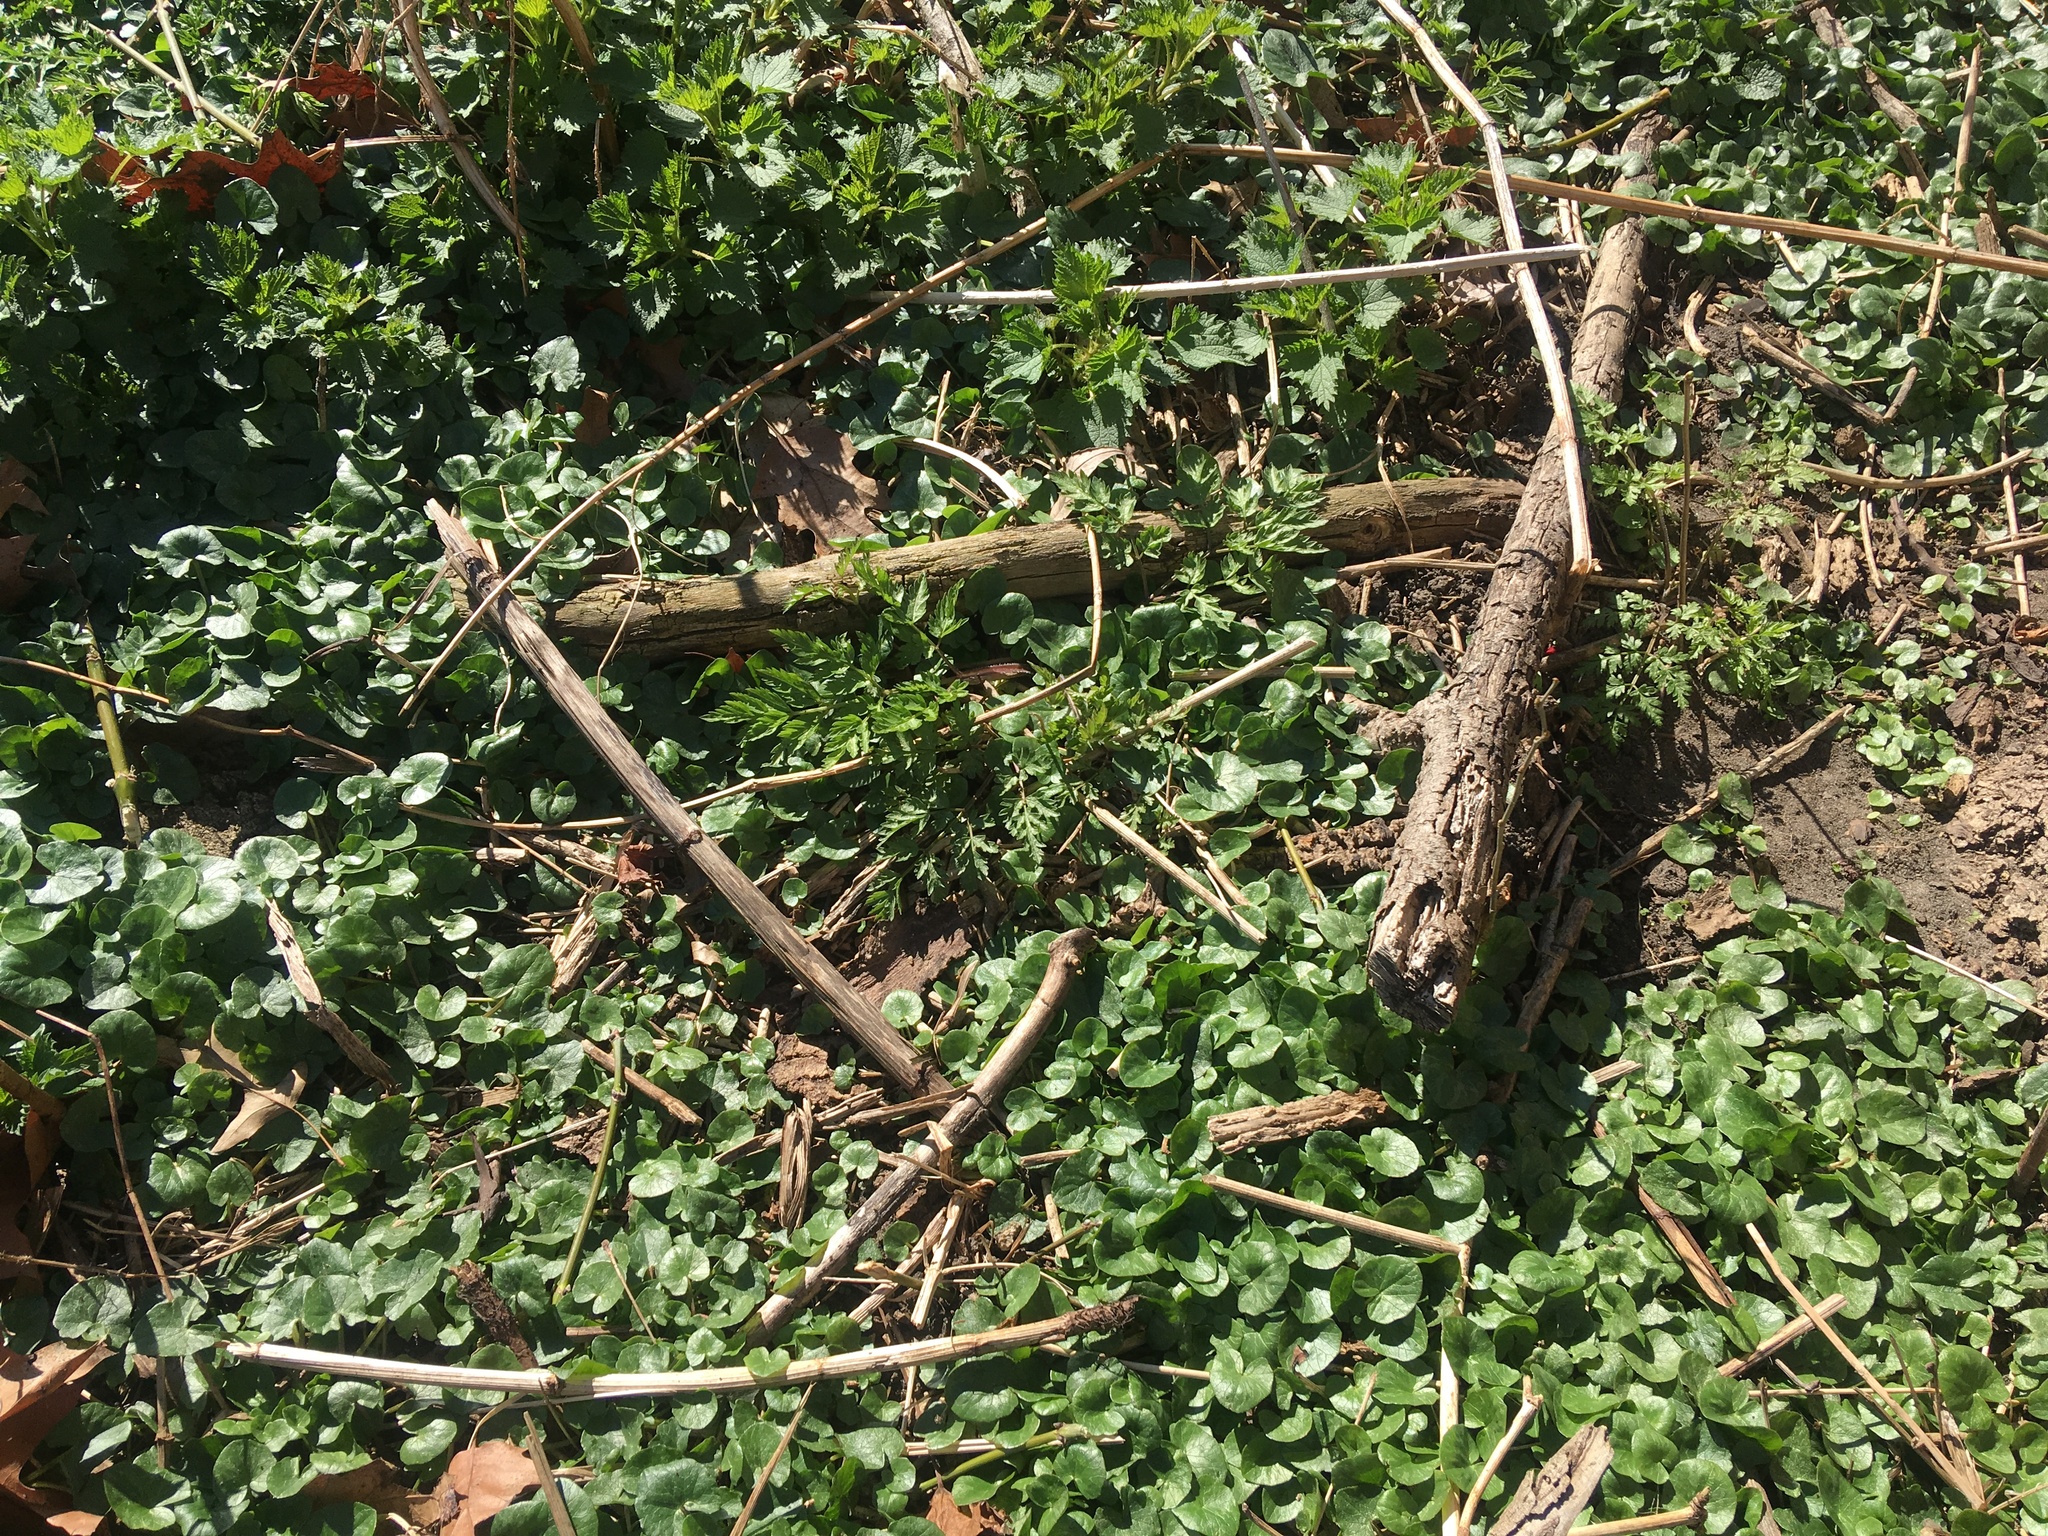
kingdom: Plantae
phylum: Tracheophyta
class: Magnoliopsida
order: Ranunculales
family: Ranunculaceae
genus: Ficaria
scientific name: Ficaria verna
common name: Lesser celandine
